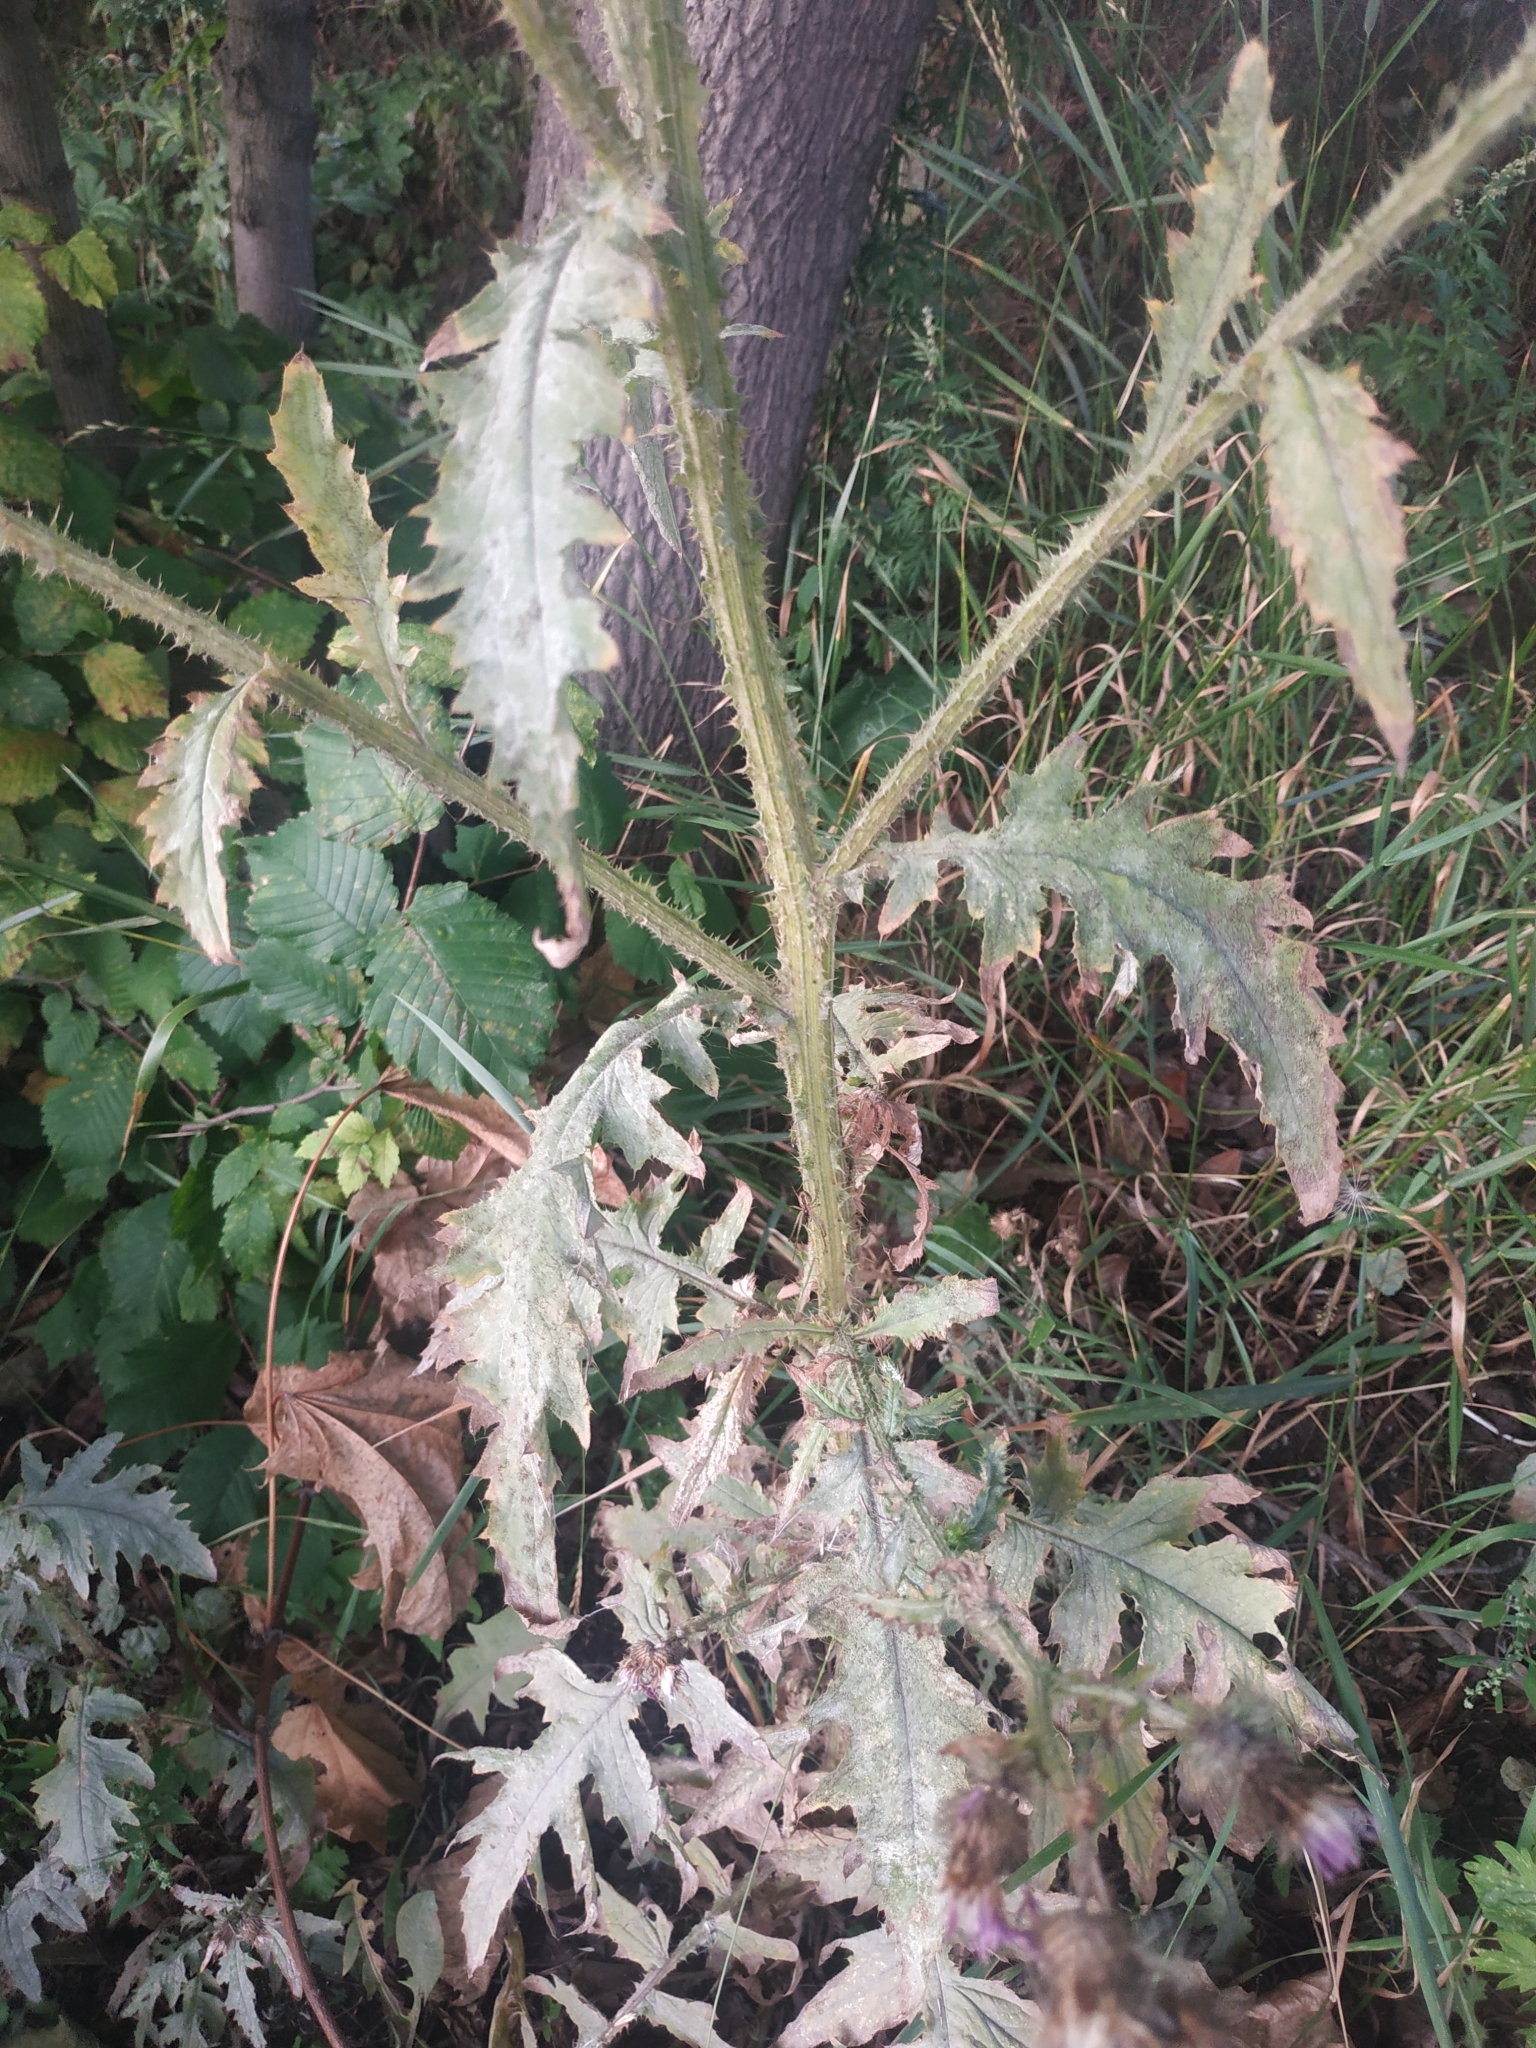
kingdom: Plantae
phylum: Tracheophyta
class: Magnoliopsida
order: Asterales
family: Asteraceae
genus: Cirsium
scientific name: Cirsium vulgare
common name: Bull thistle
